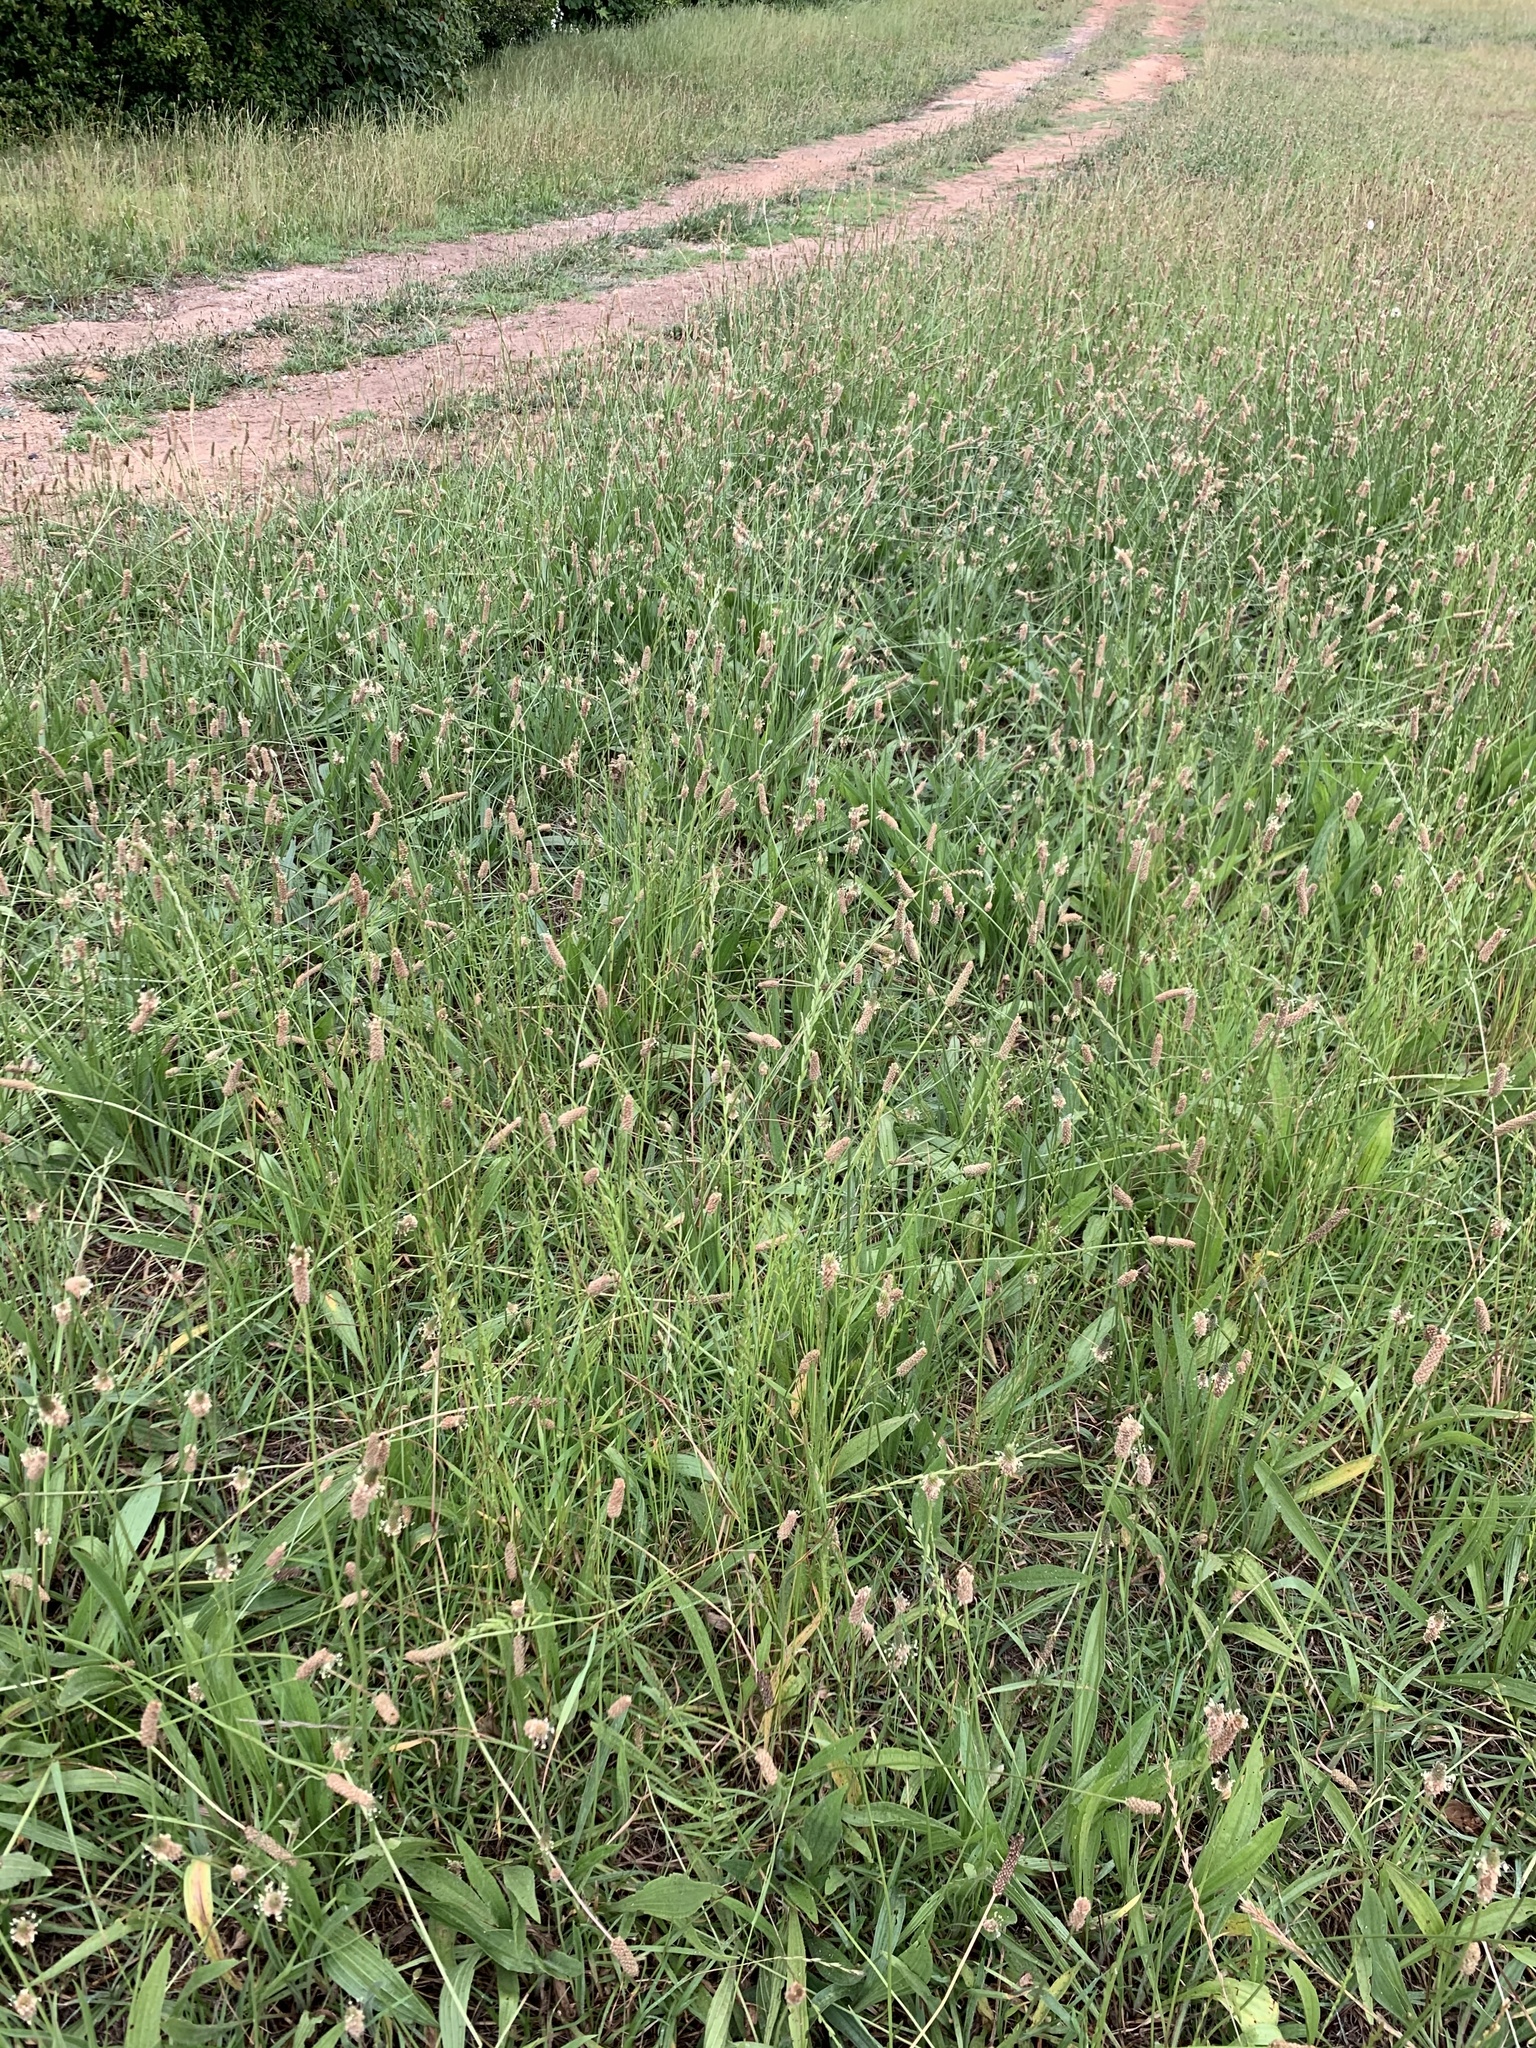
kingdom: Plantae
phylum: Tracheophyta
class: Magnoliopsida
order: Lamiales
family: Plantaginaceae
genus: Plantago
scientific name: Plantago lanceolata
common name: Ribwort plantain
